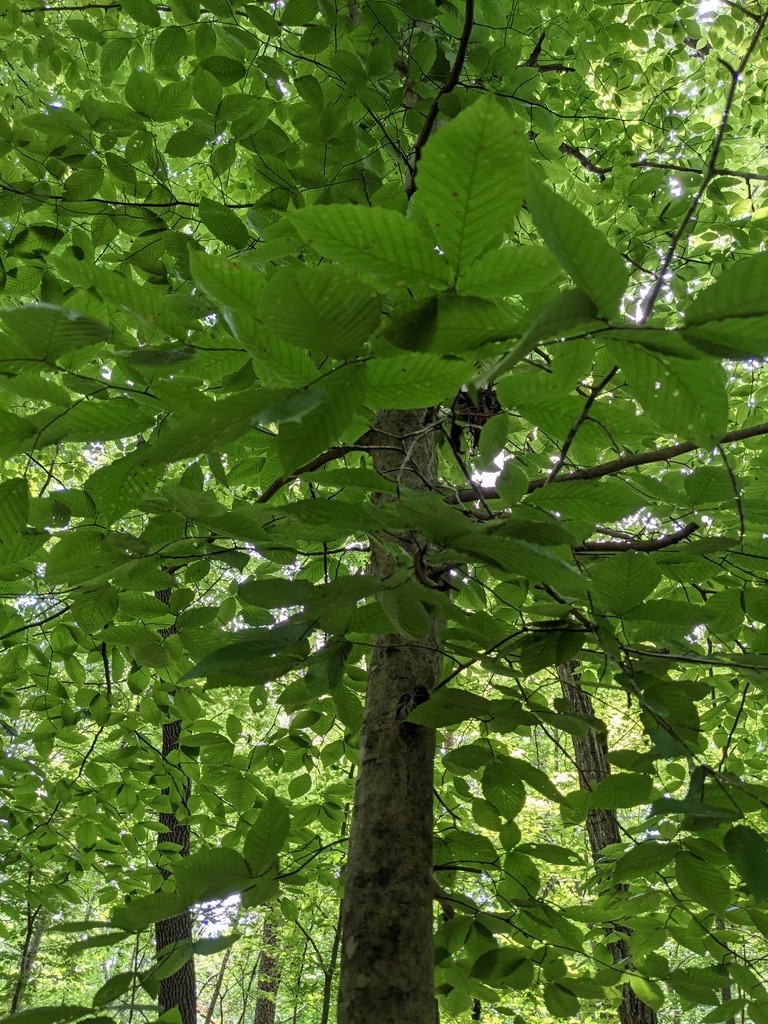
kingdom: Plantae
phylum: Tracheophyta
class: Magnoliopsida
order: Fagales
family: Fagaceae
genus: Fagus
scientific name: Fagus grandifolia
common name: American beech
